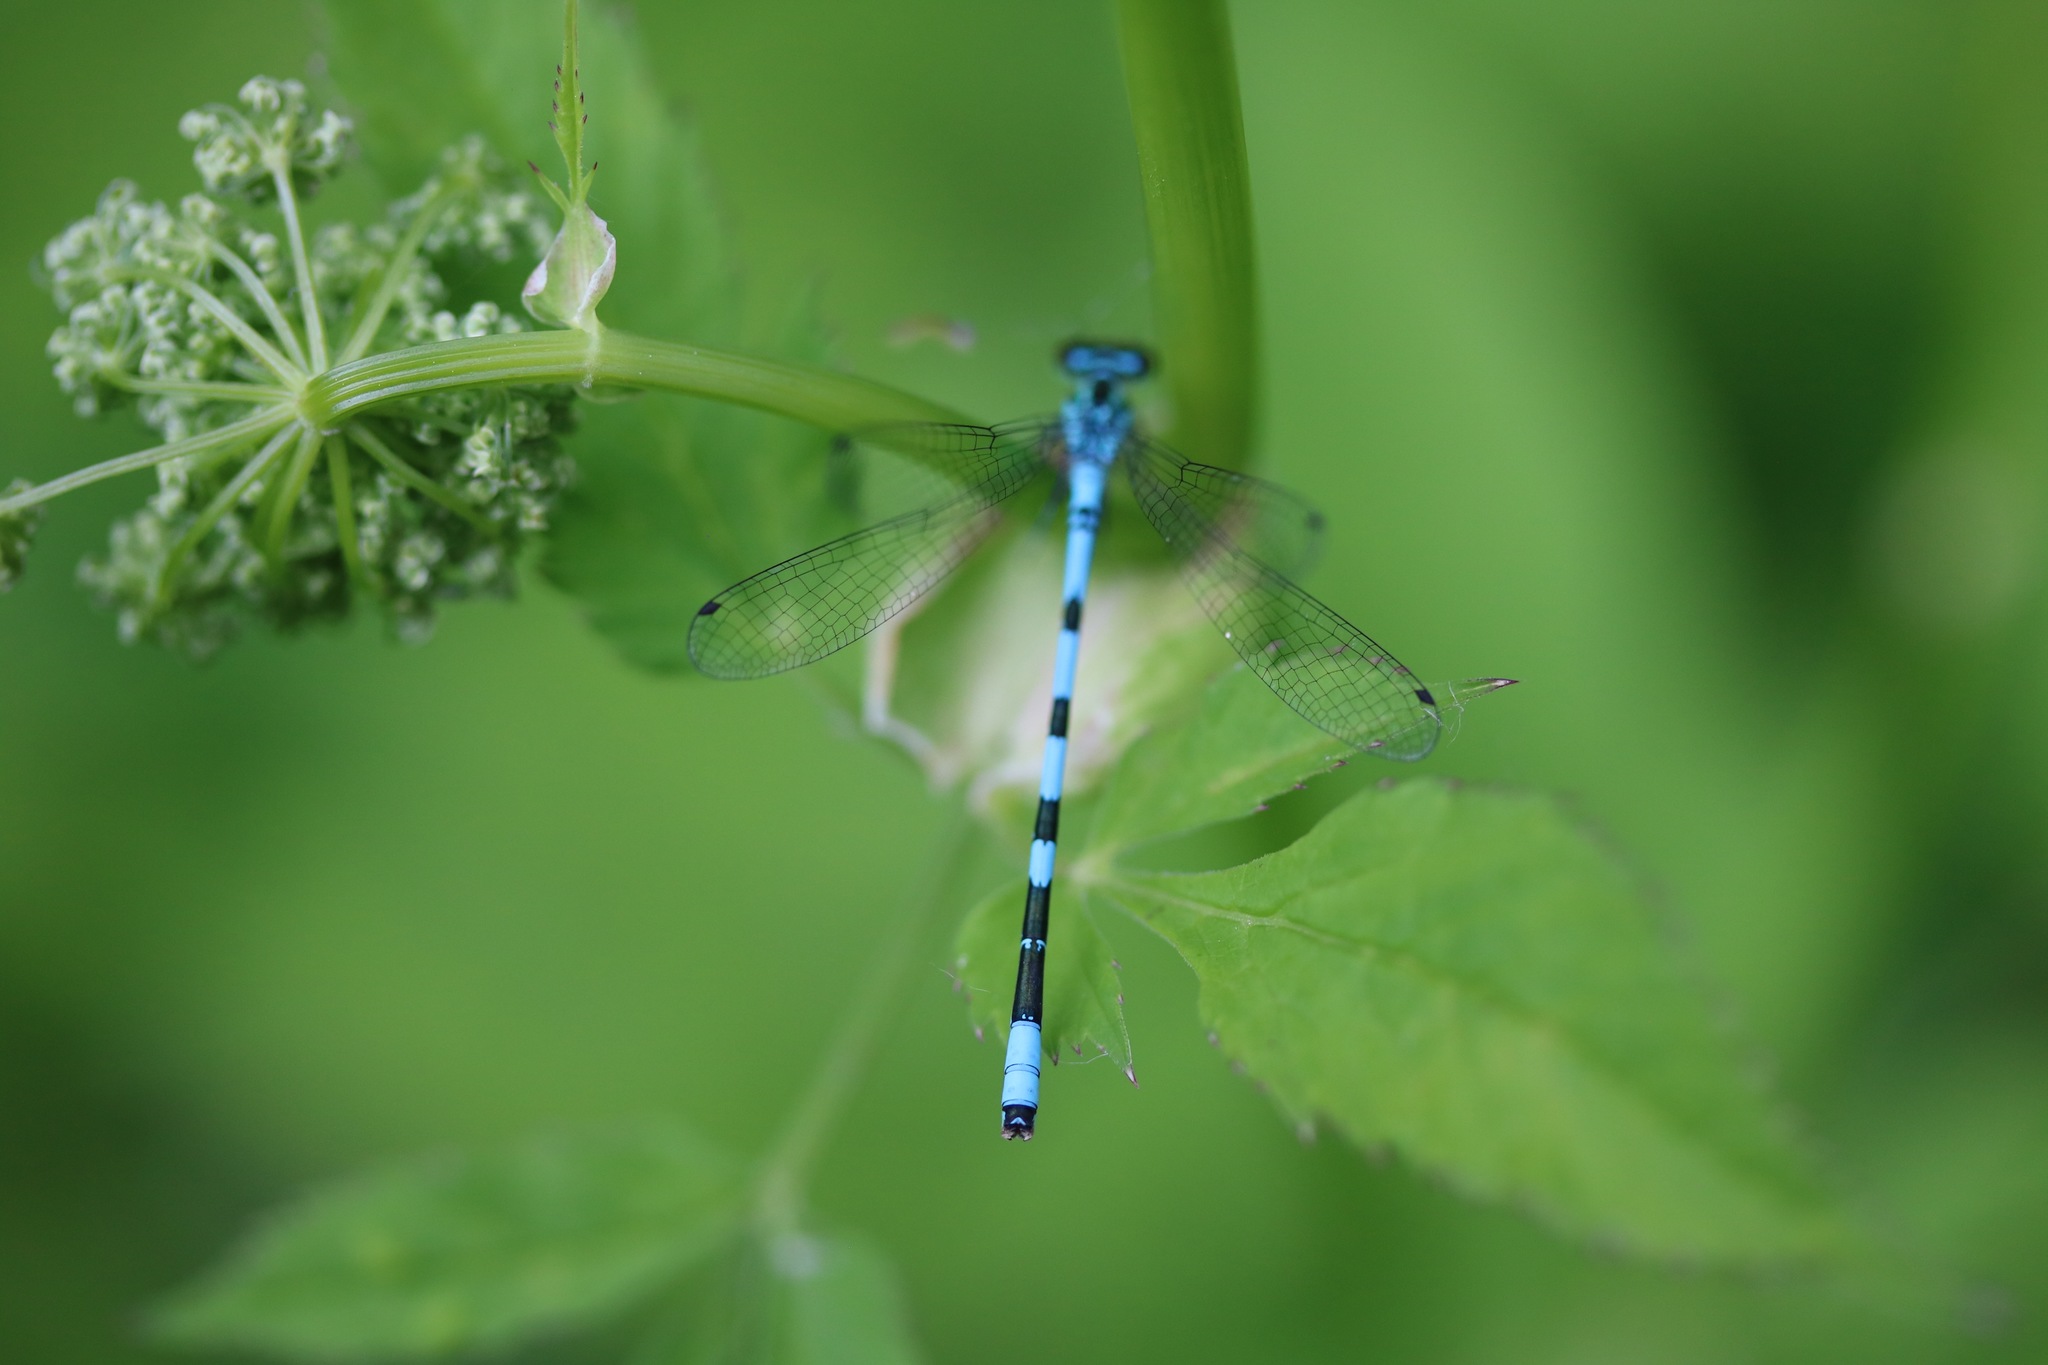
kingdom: Animalia
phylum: Arthropoda
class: Insecta
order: Odonata
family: Coenagrionidae
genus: Coenagrion
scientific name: Coenagrion hastulatum
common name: Spearhead bluet
